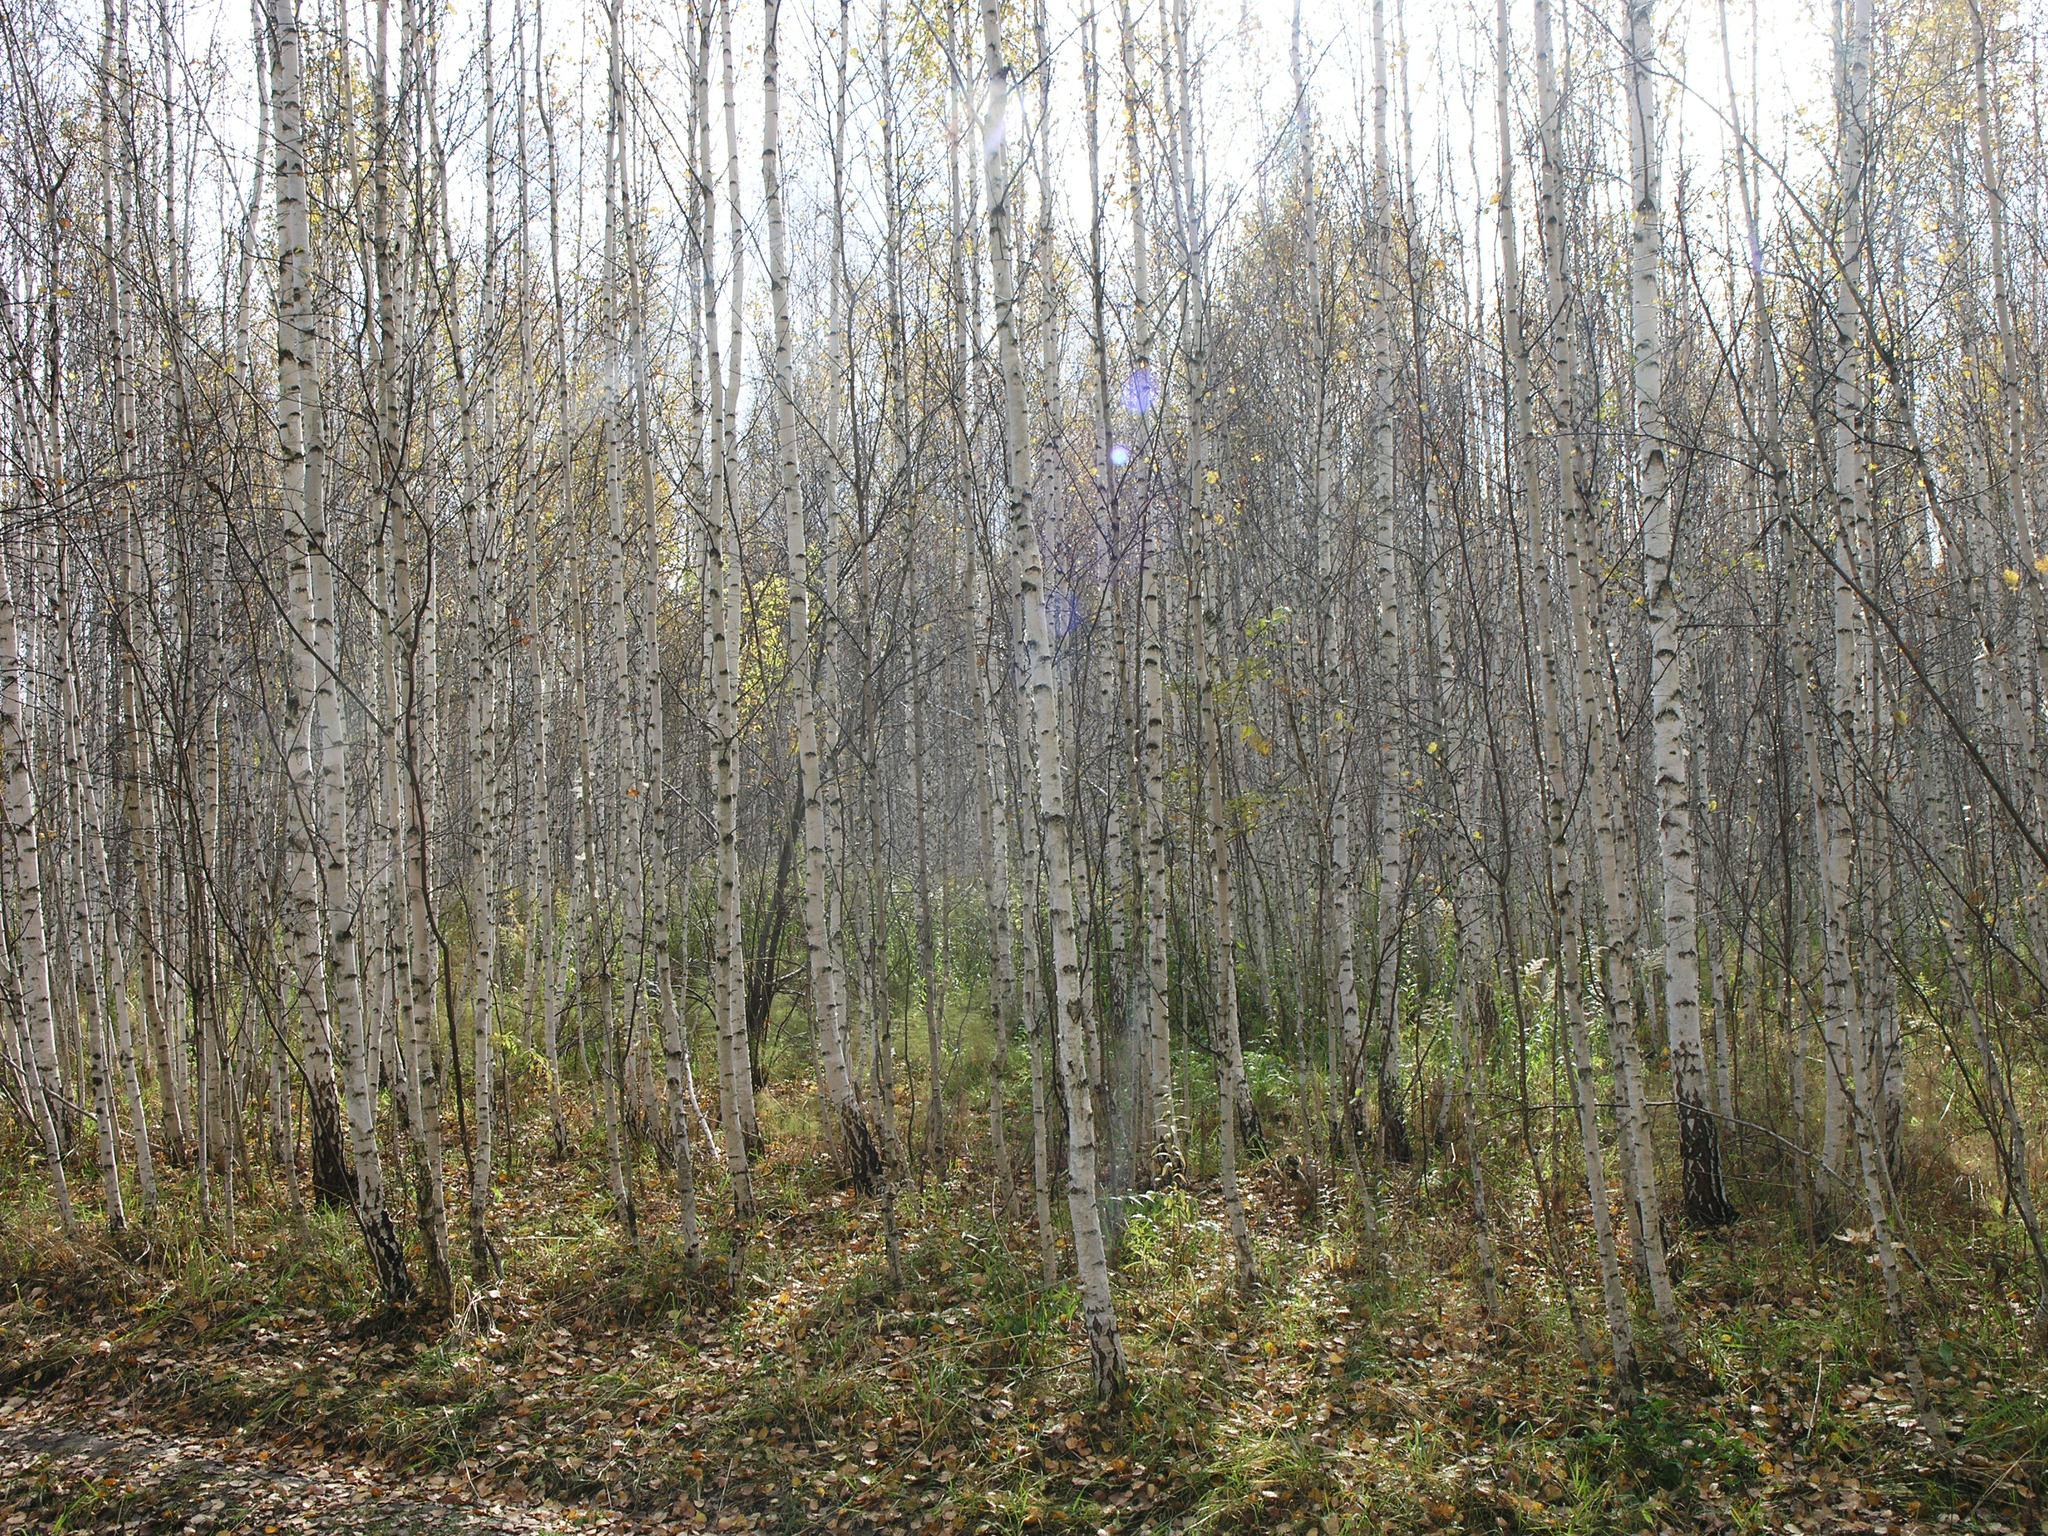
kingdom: Plantae
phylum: Tracheophyta
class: Magnoliopsida
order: Fagales
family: Betulaceae
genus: Betula
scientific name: Betula pendula
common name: Silver birch
